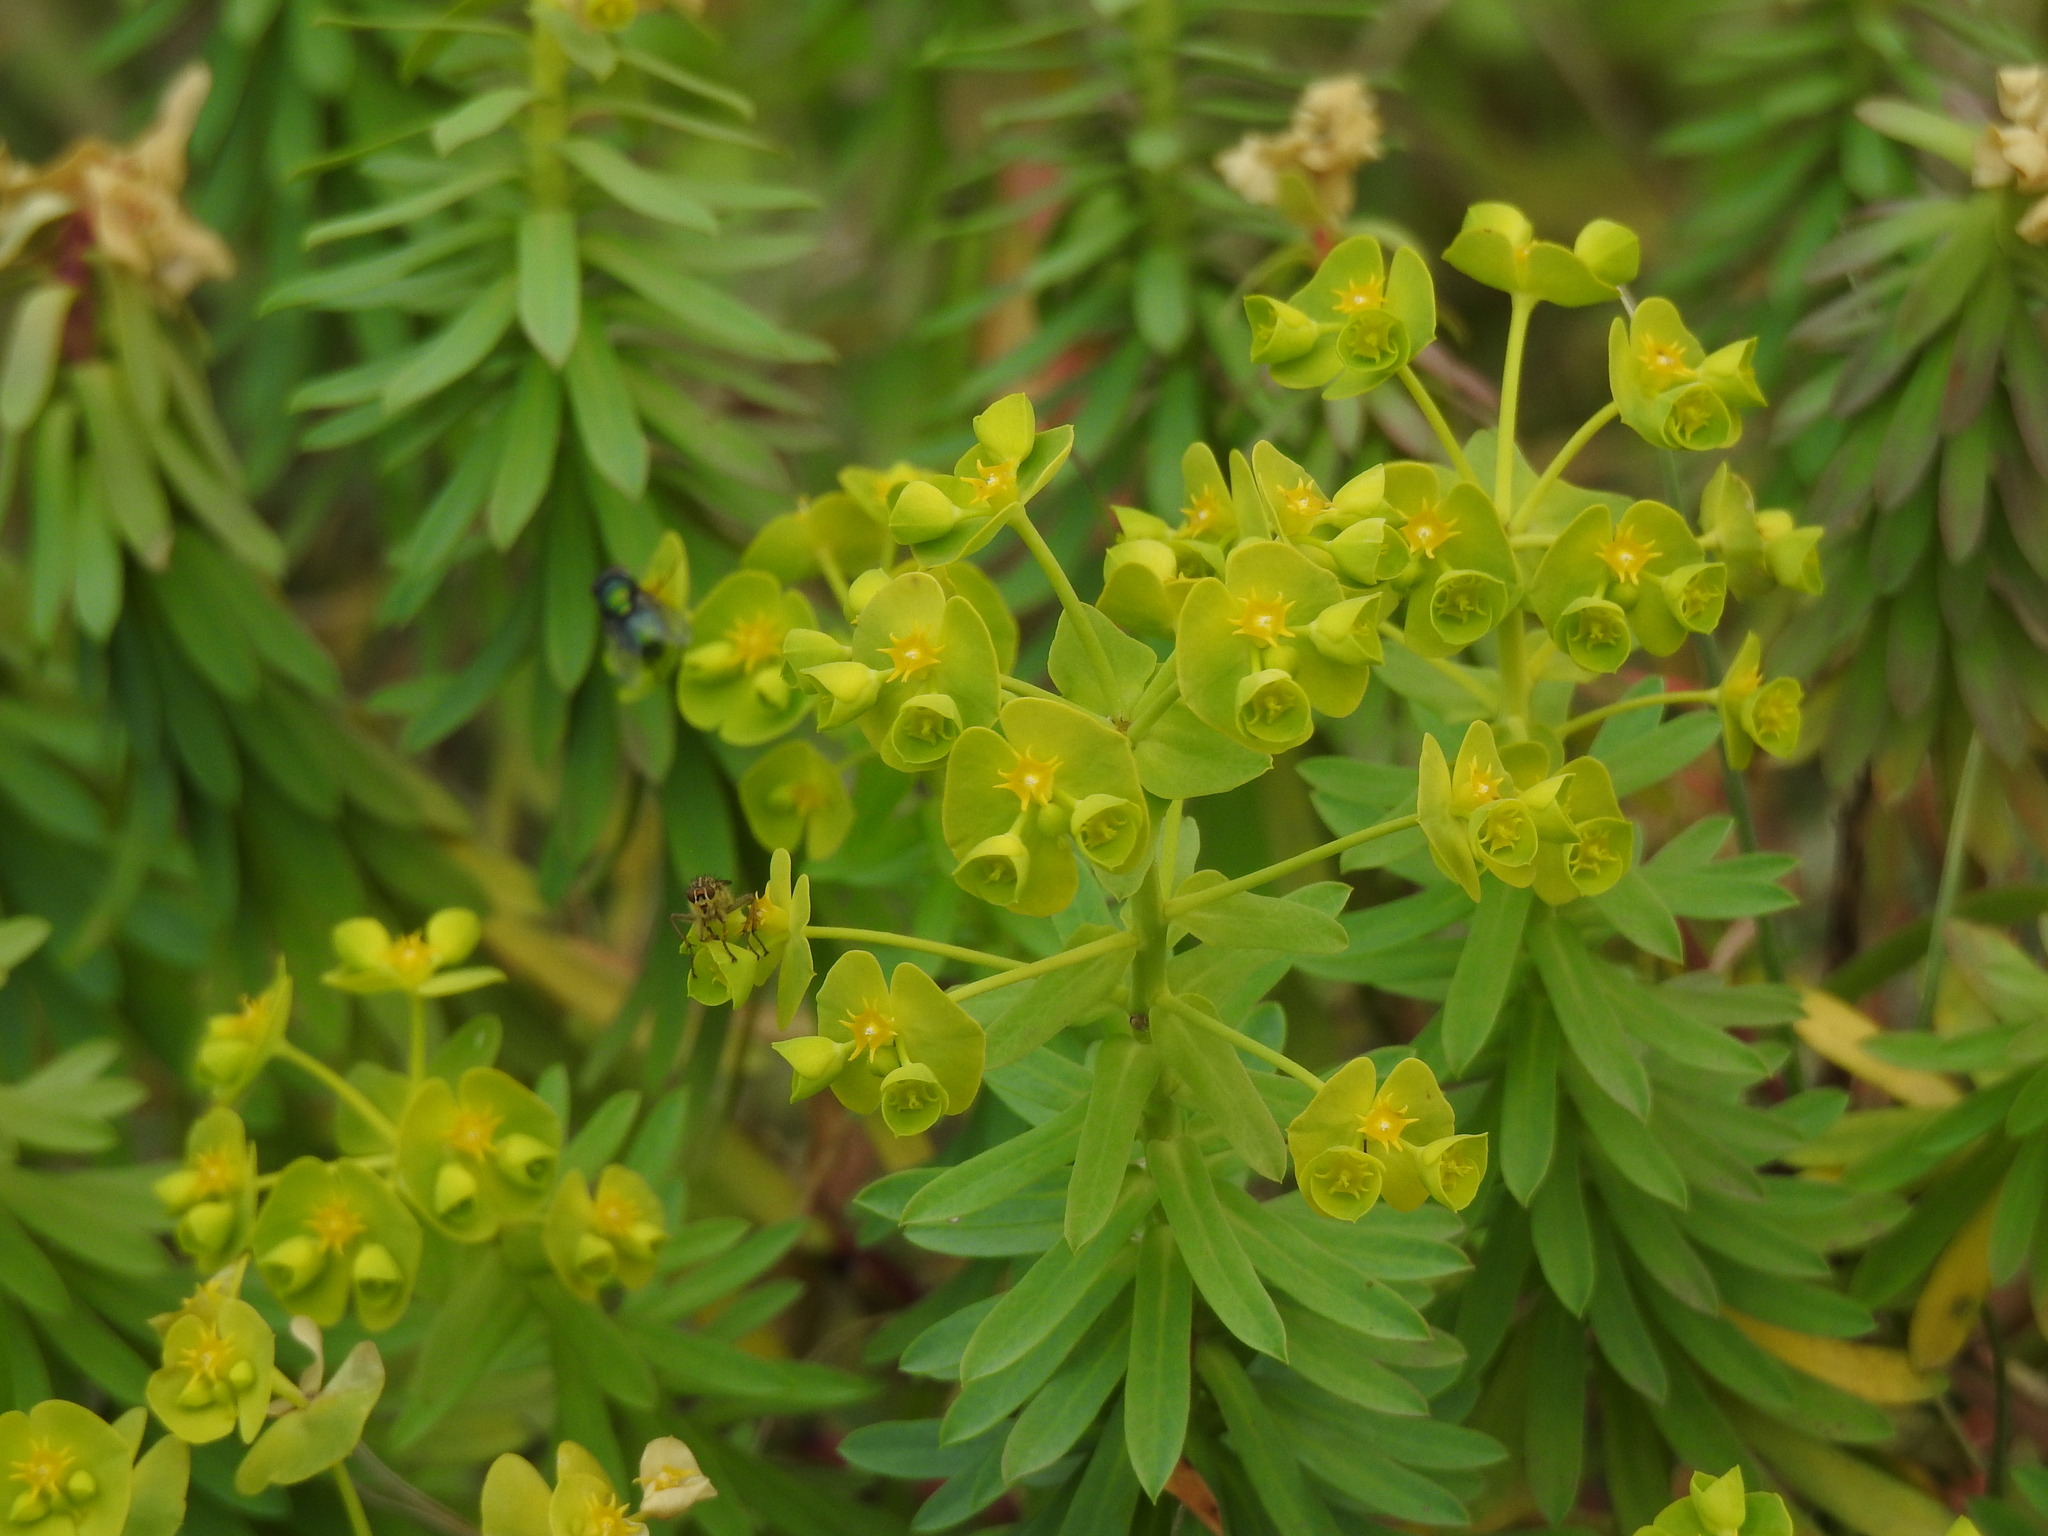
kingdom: Plantae
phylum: Tracheophyta
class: Magnoliopsida
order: Malpighiales
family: Euphorbiaceae
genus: Euphorbia
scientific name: Euphorbia segetalis
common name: Corn spurge
